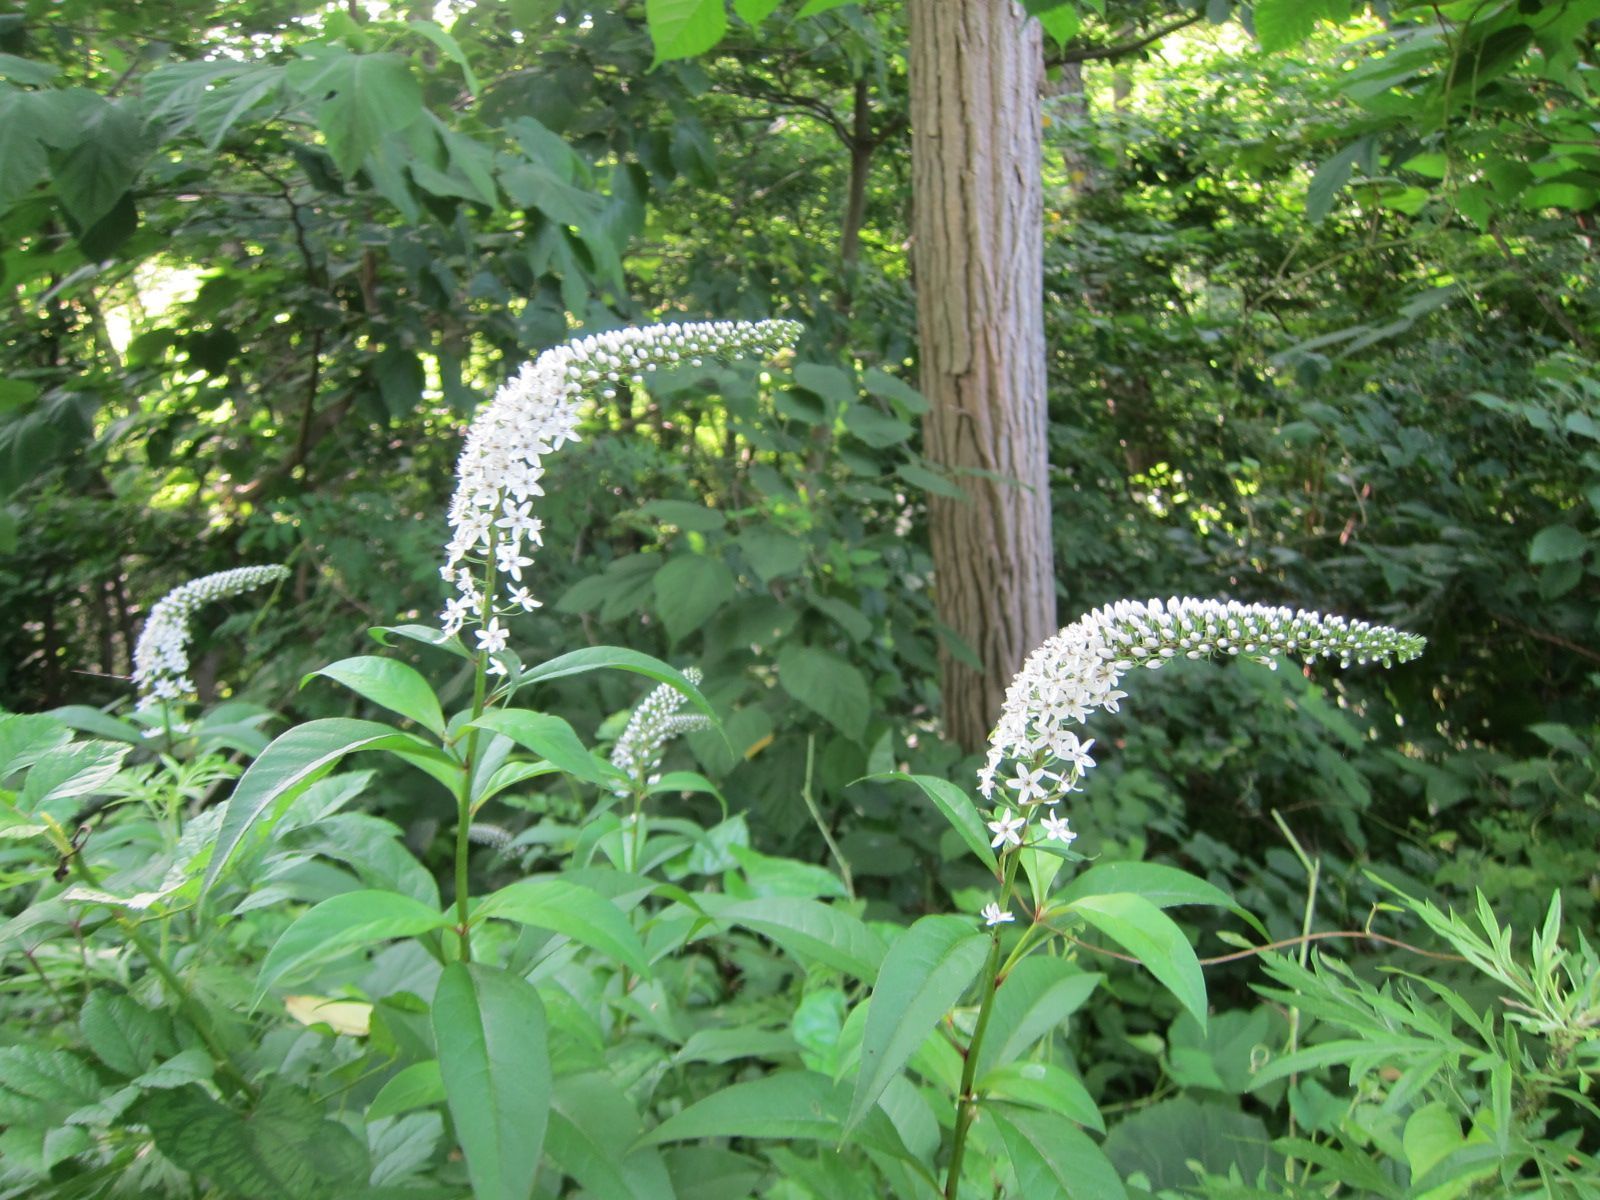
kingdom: Plantae
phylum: Tracheophyta
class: Magnoliopsida
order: Ericales
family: Primulaceae
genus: Lysimachia
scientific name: Lysimachia clethroides
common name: Gooseneck loosestrife
